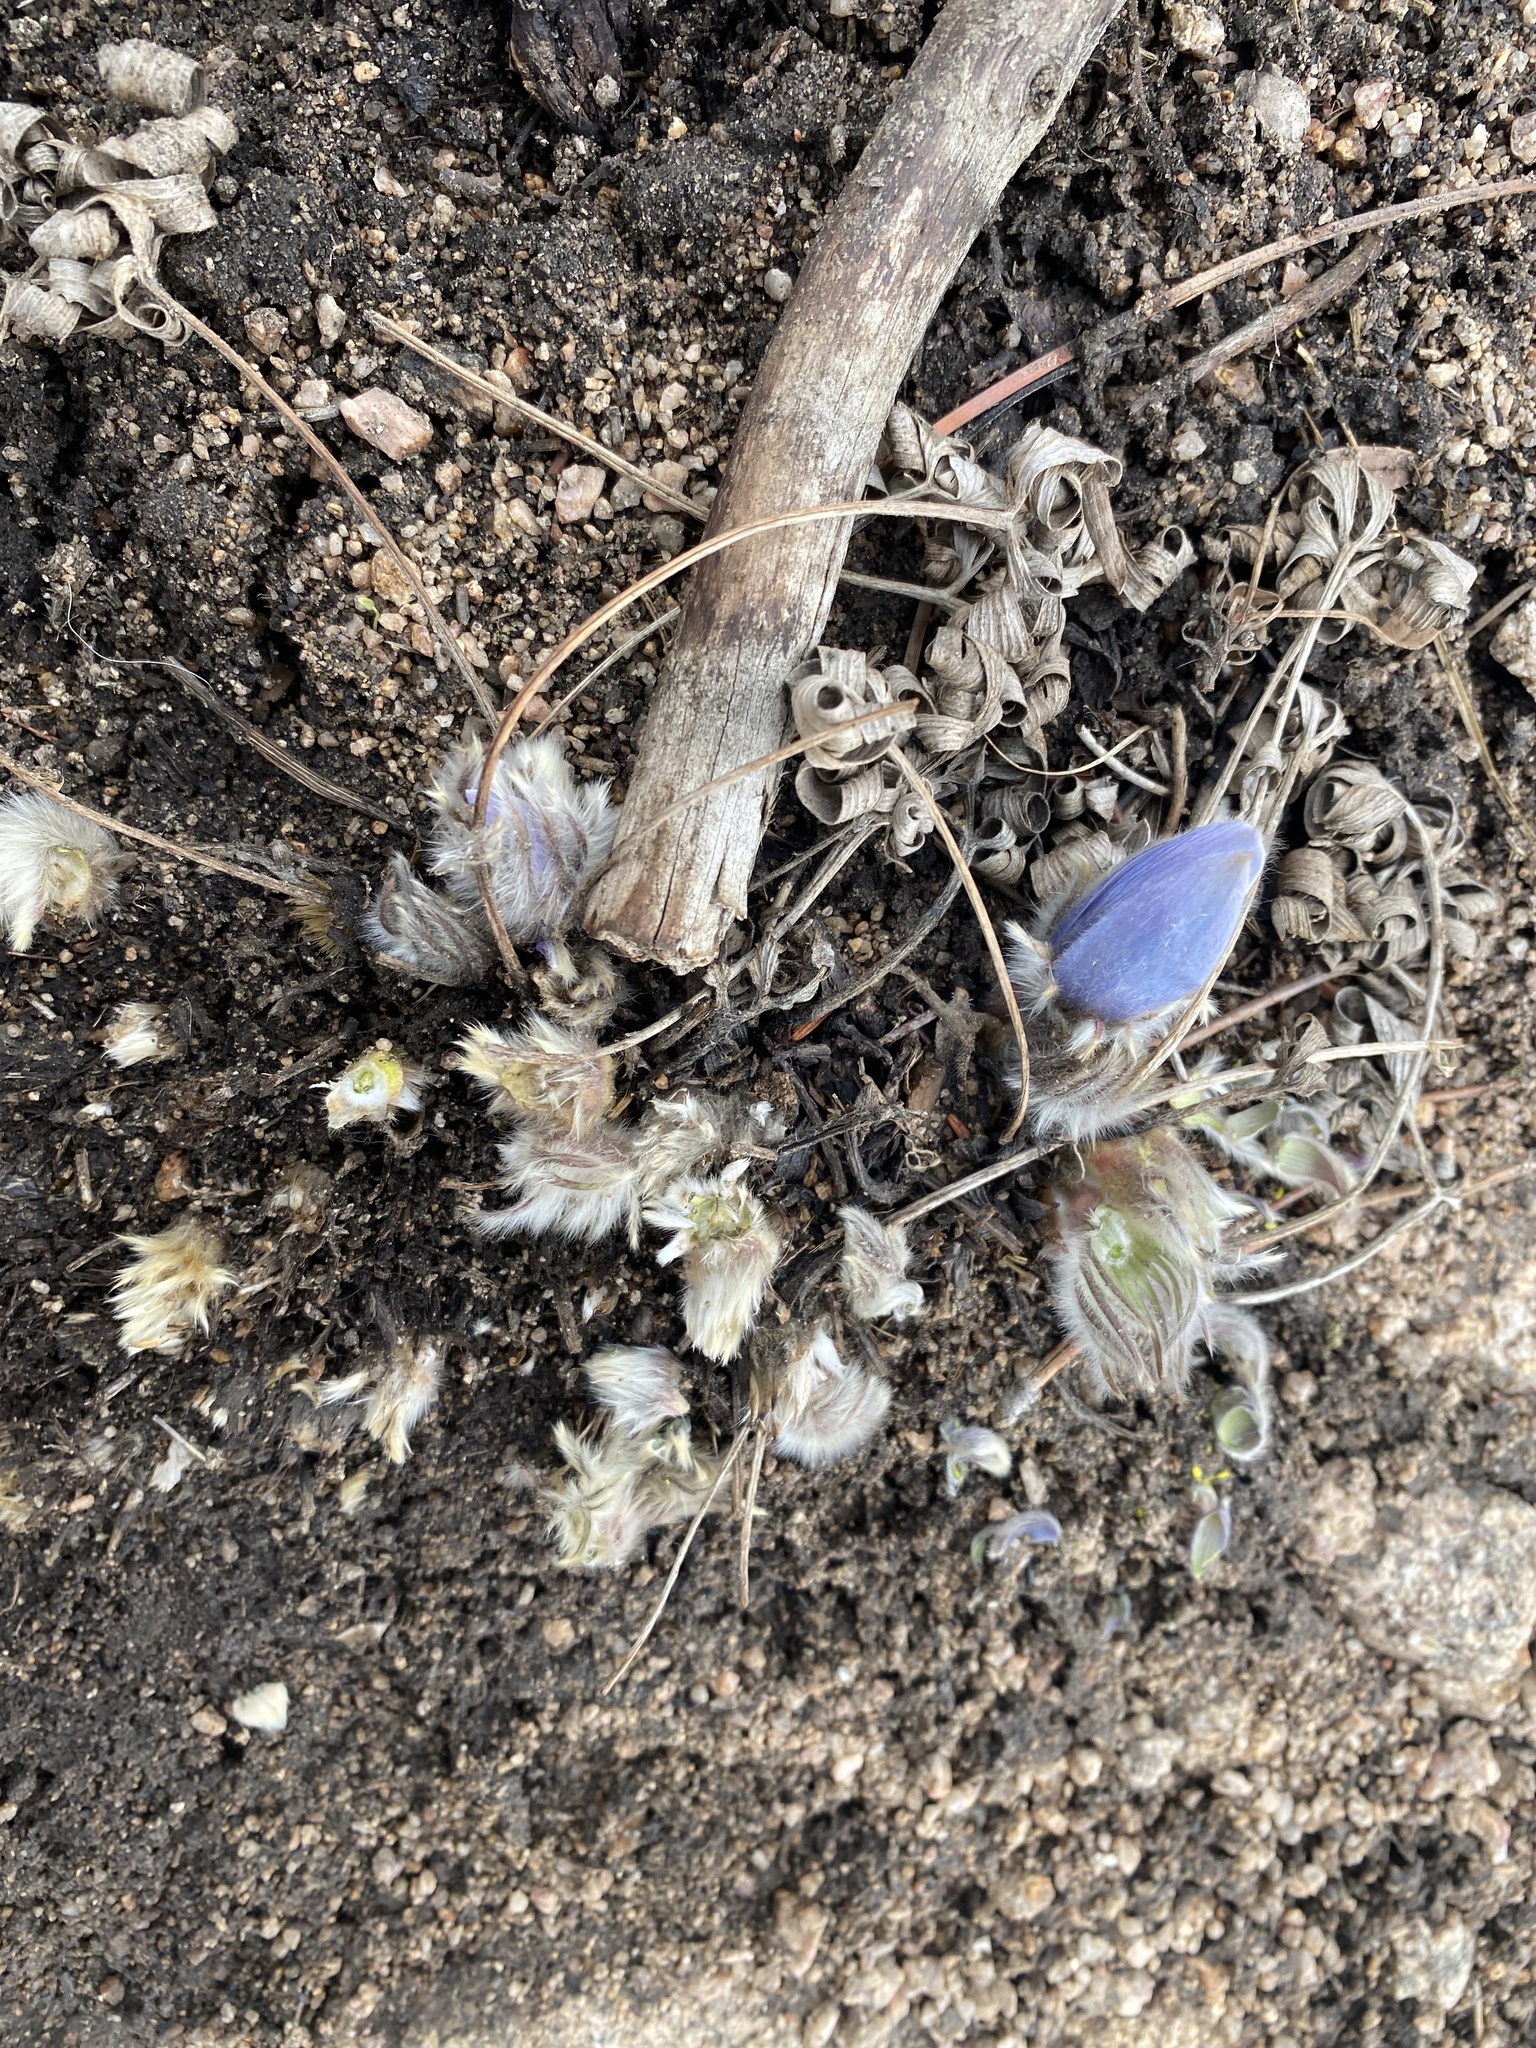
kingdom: Plantae
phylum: Tracheophyta
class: Magnoliopsida
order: Ranunculales
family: Ranunculaceae
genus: Pulsatilla
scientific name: Pulsatilla nuttalliana
